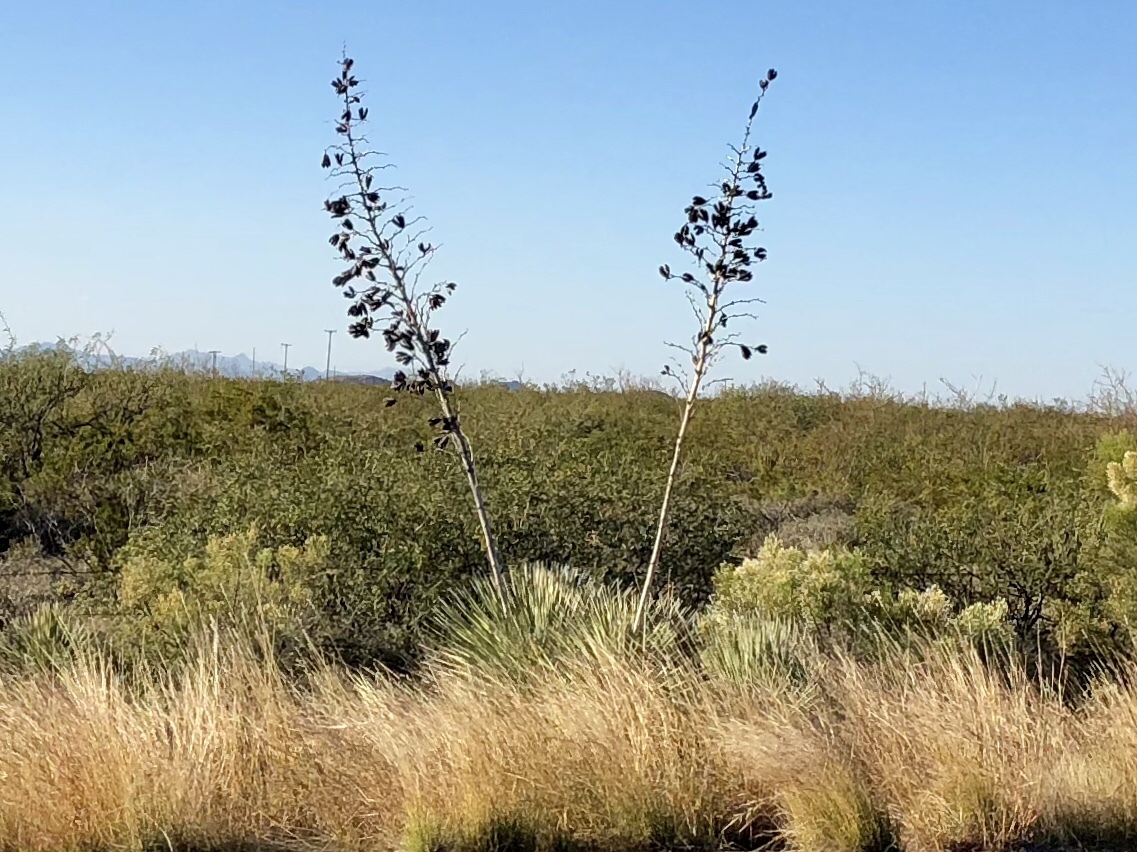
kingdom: Plantae
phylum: Tracheophyta
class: Liliopsida
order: Asparagales
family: Asparagaceae
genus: Yucca
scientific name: Yucca elata
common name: Palmella
